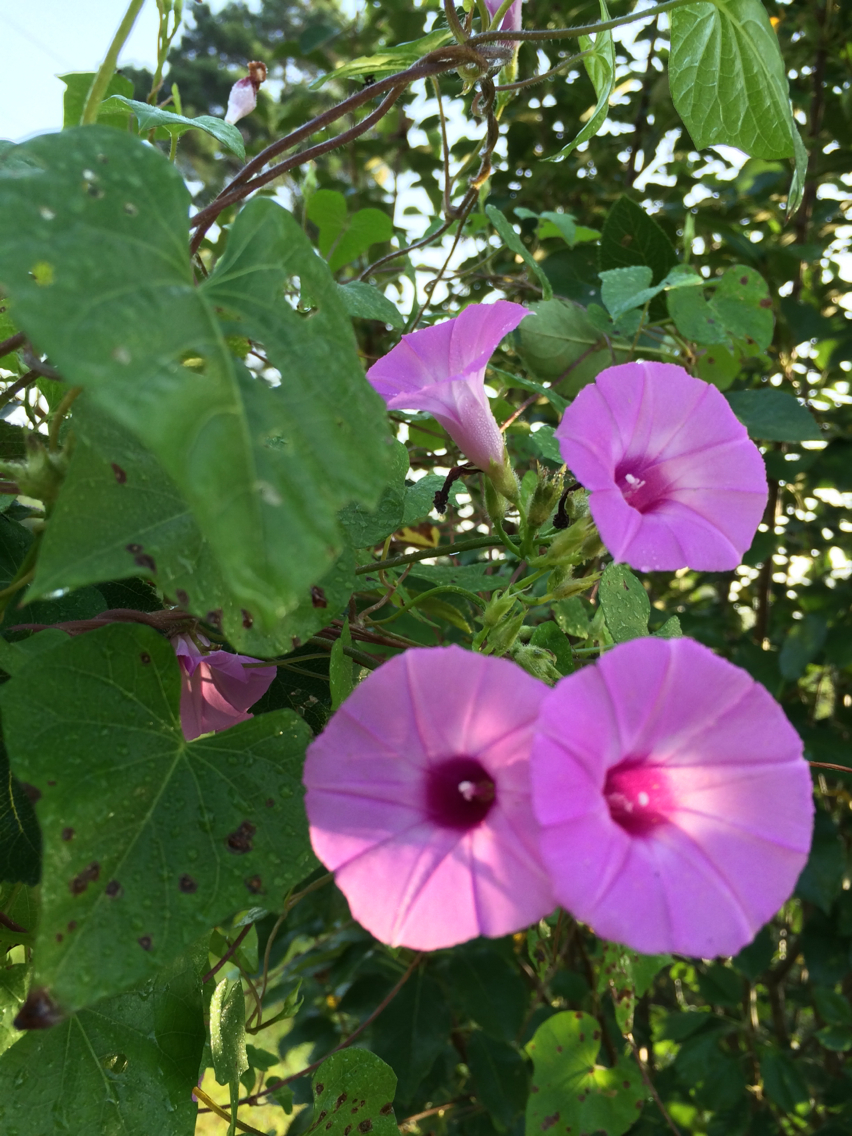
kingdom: Plantae
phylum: Tracheophyta
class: Magnoliopsida
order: Solanales
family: Convolvulaceae
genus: Ipomoea
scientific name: Ipomoea cordatotriloba
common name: Cotton morning glory
